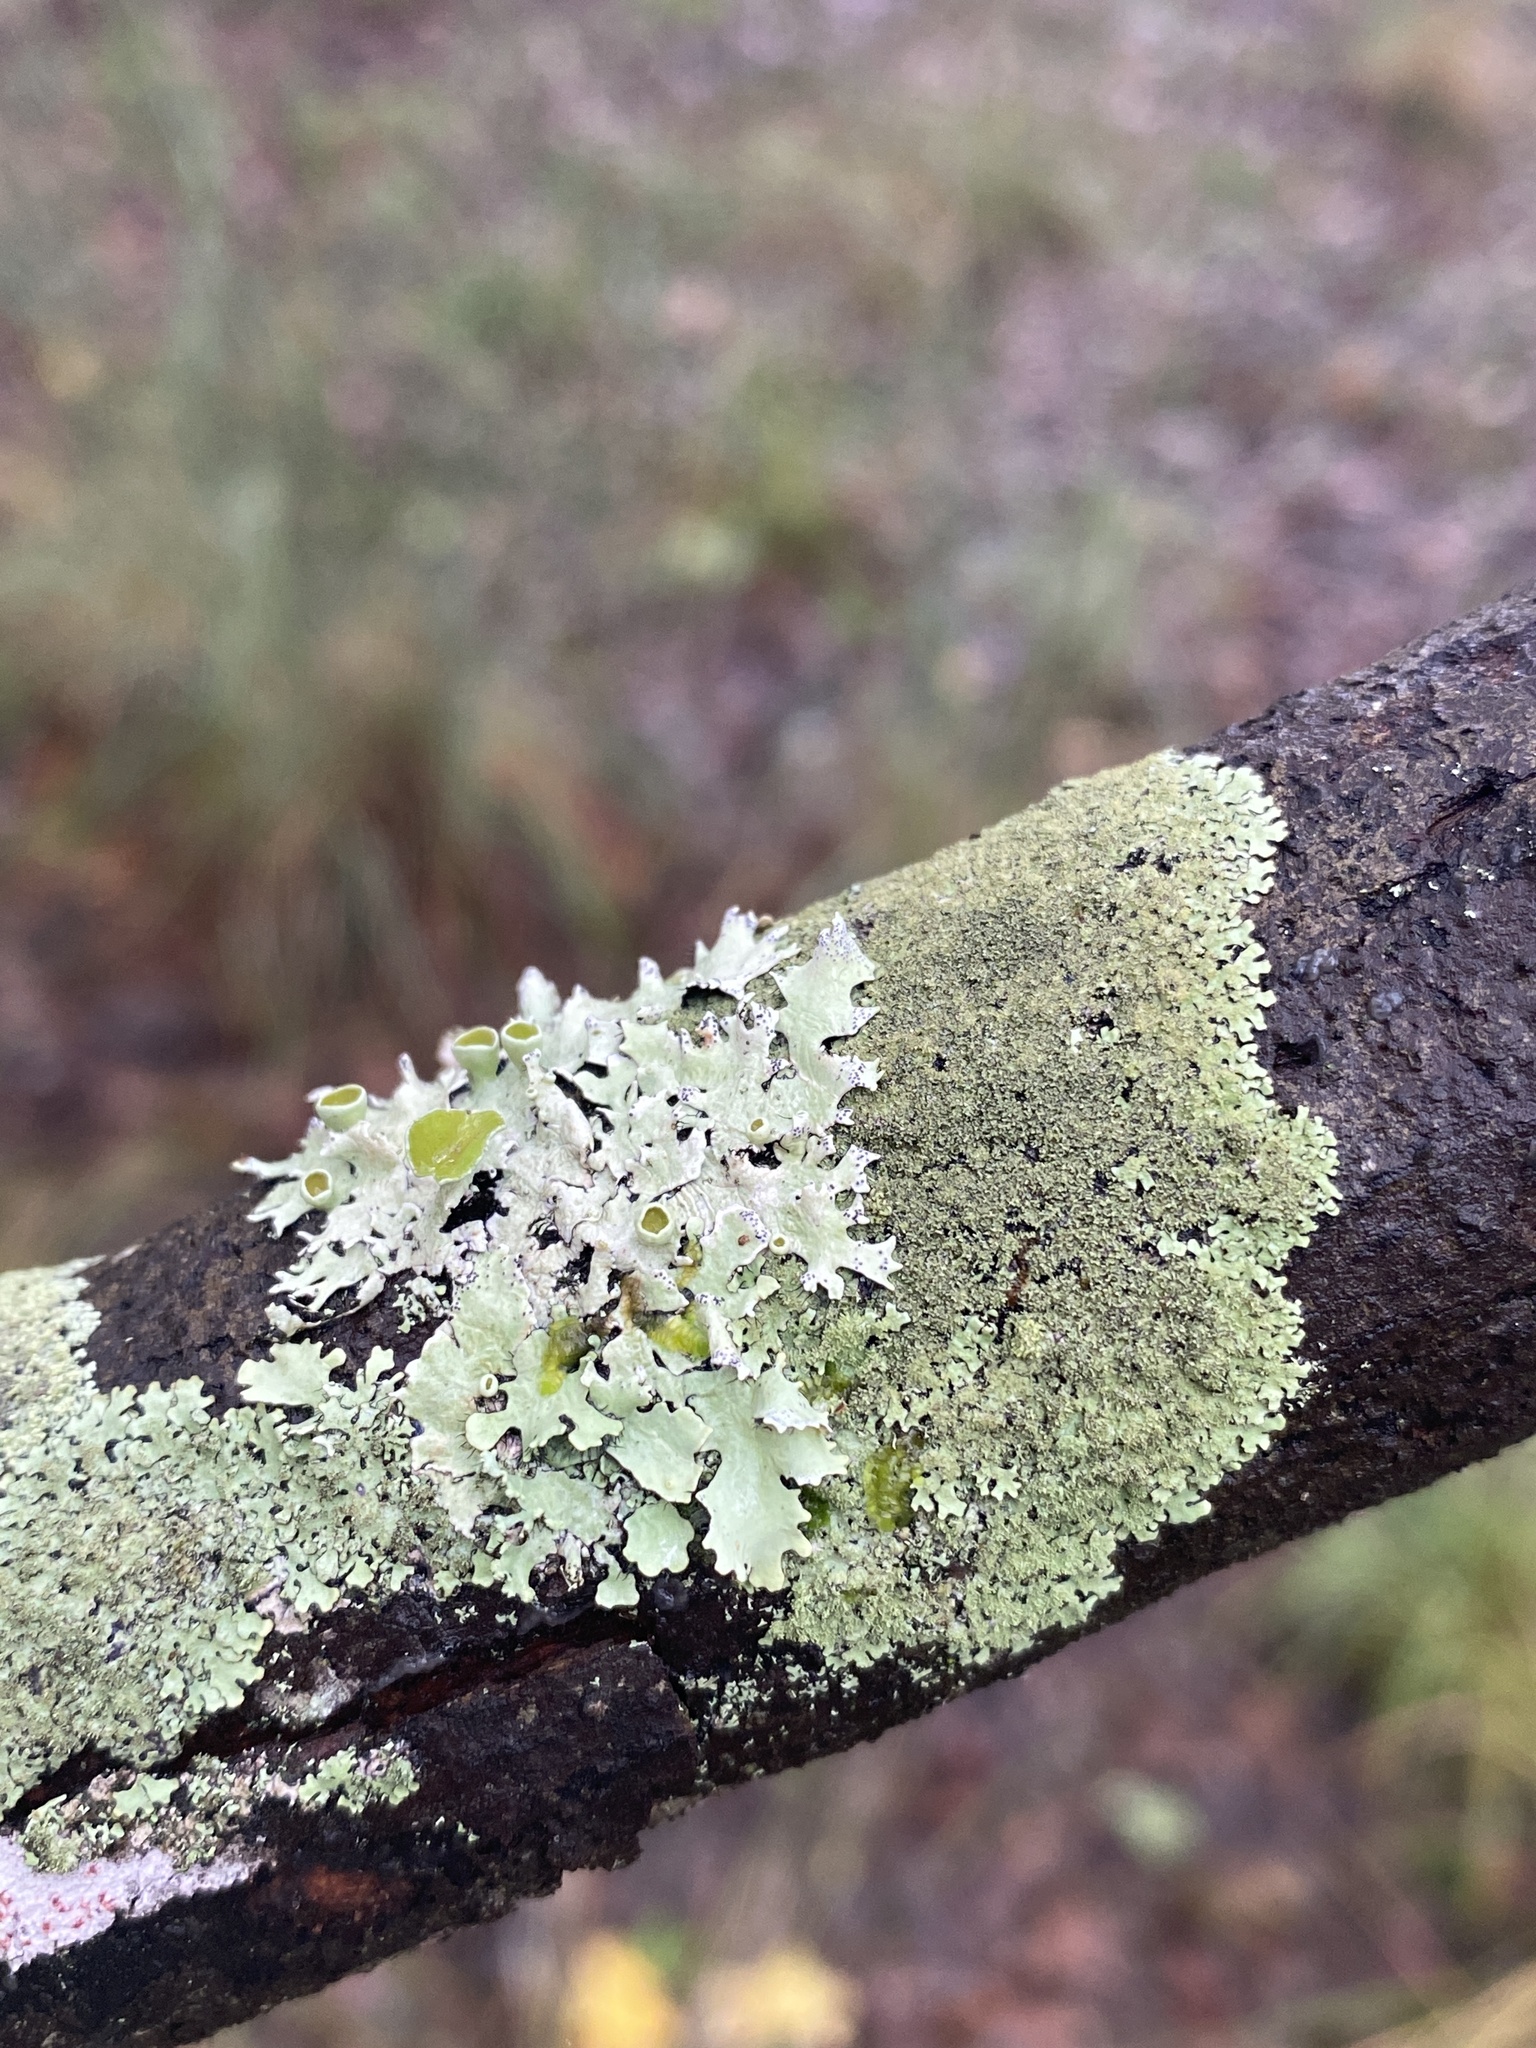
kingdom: Fungi
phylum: Ascomycota
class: Lecanoromycetes
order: Lecanorales
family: Parmeliaceae
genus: Parmotrema
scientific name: Parmotrema submarginale
